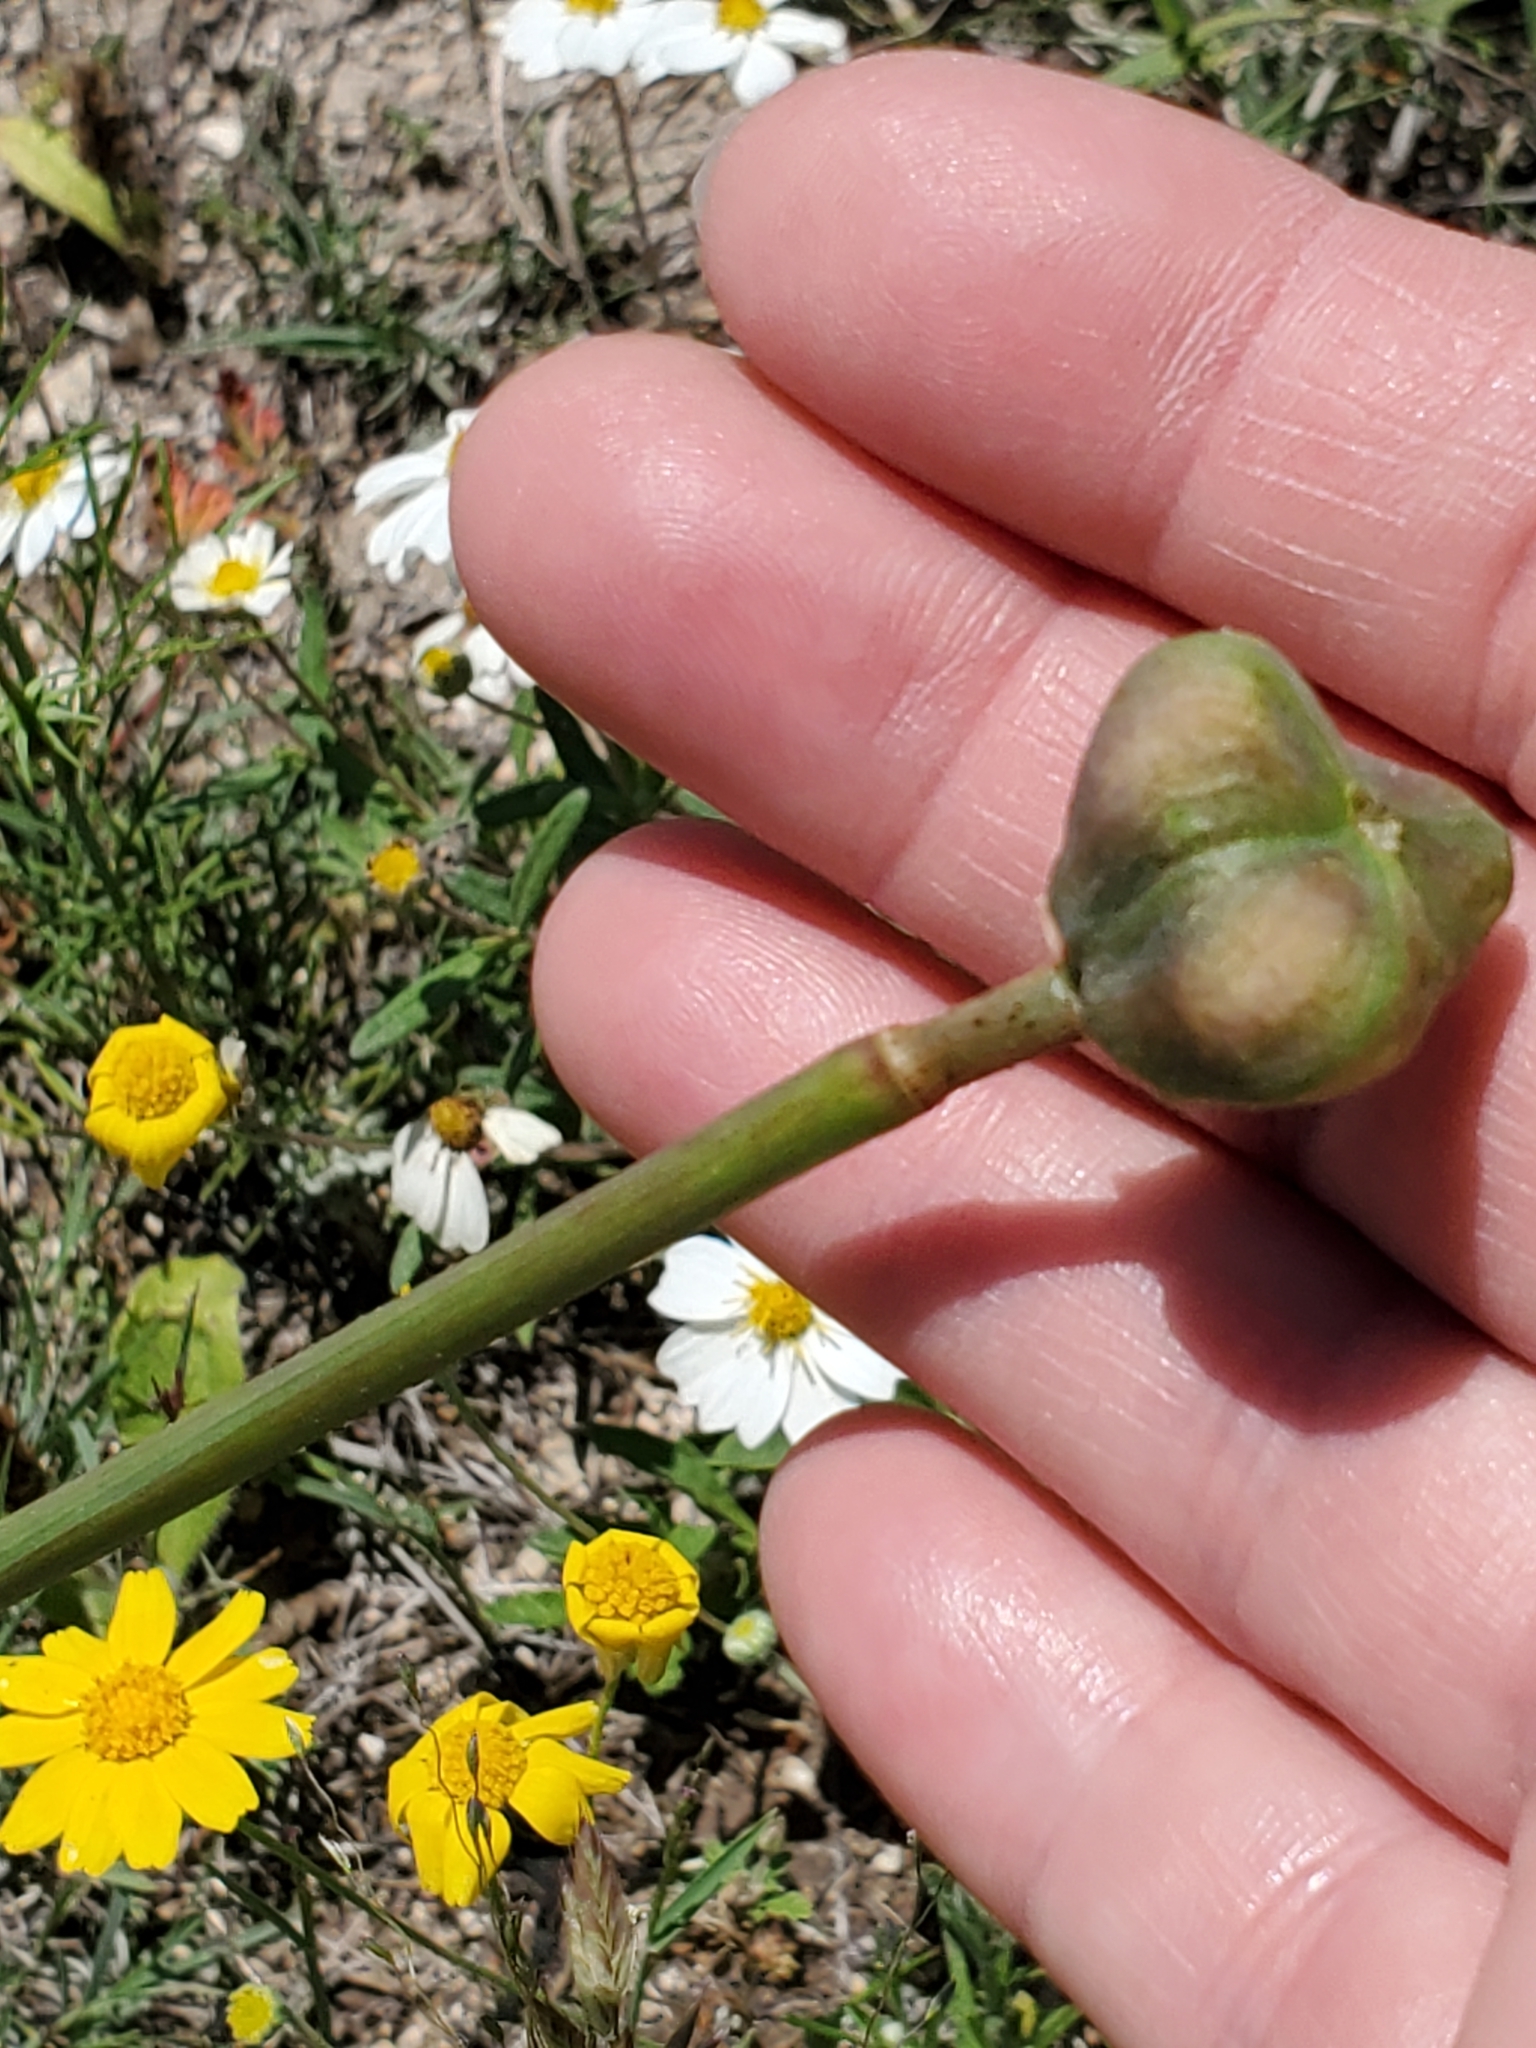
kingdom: Plantae
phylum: Tracheophyta
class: Liliopsida
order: Asparagales
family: Amaryllidaceae
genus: Zephyranthes
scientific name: Zephyranthes drummondii
